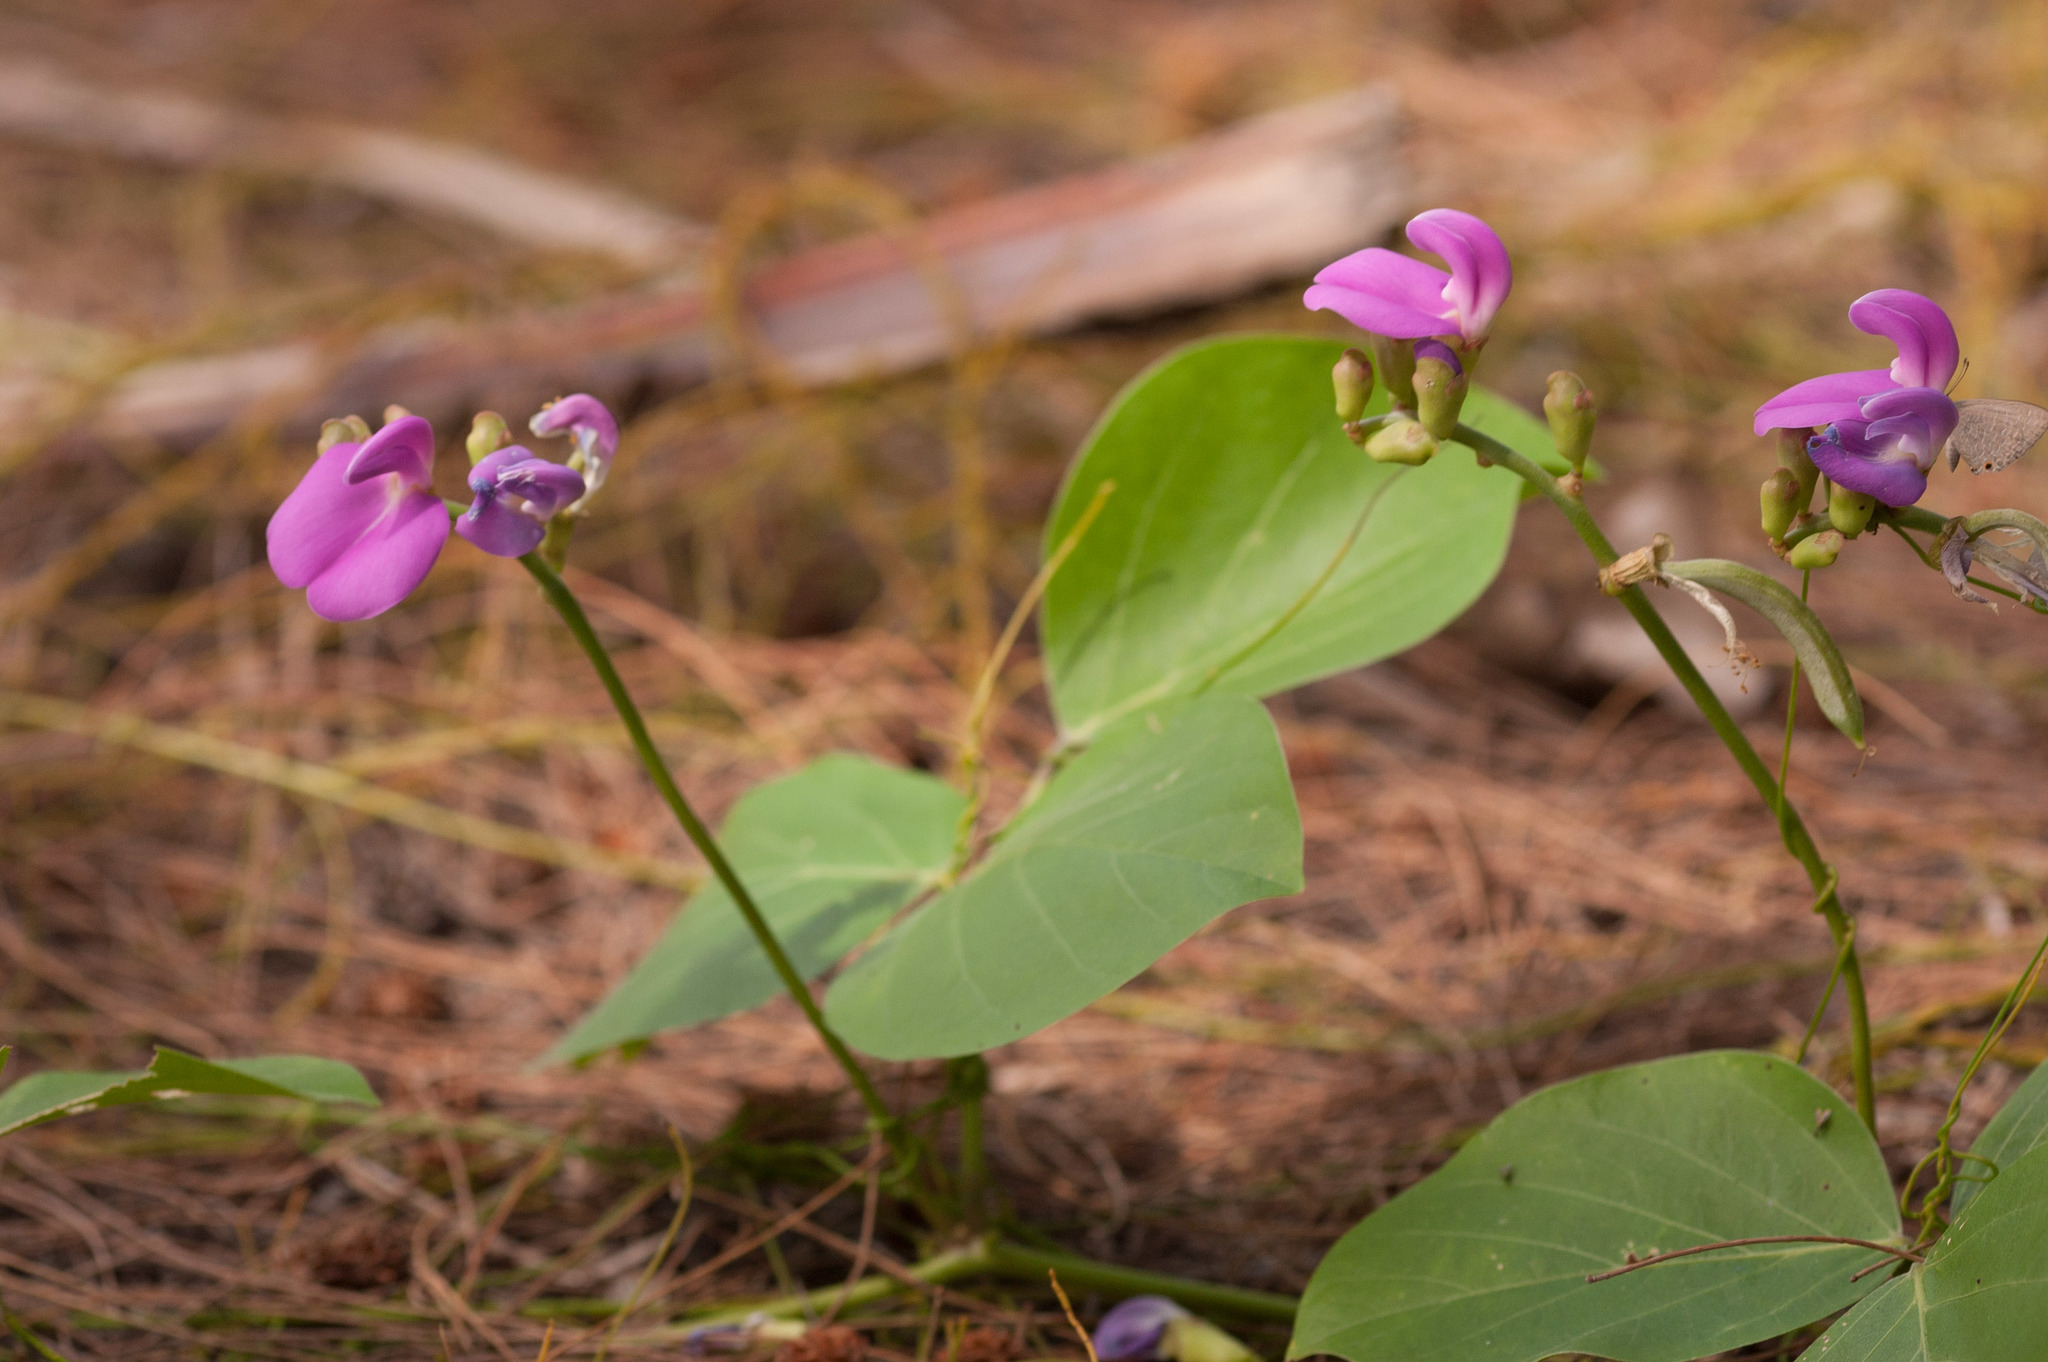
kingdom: Plantae
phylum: Tracheophyta
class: Magnoliopsida
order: Fabales
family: Fabaceae
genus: Canavalia
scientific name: Canavalia rosea
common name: Beach-bean
